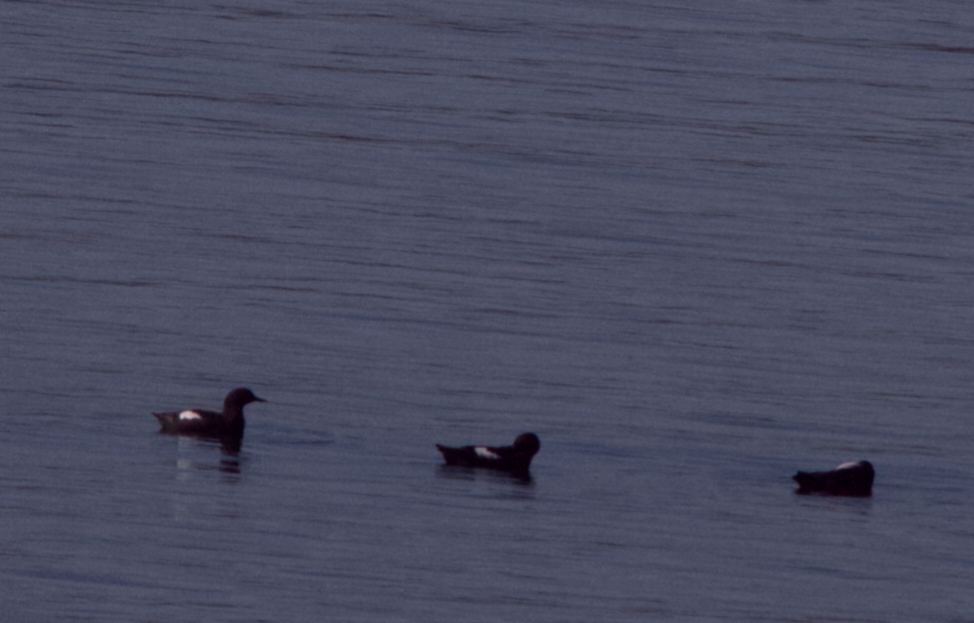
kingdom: Animalia
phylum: Chordata
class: Aves
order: Charadriiformes
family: Alcidae
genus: Cepphus
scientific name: Cepphus columba
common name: Pigeon guillemot
